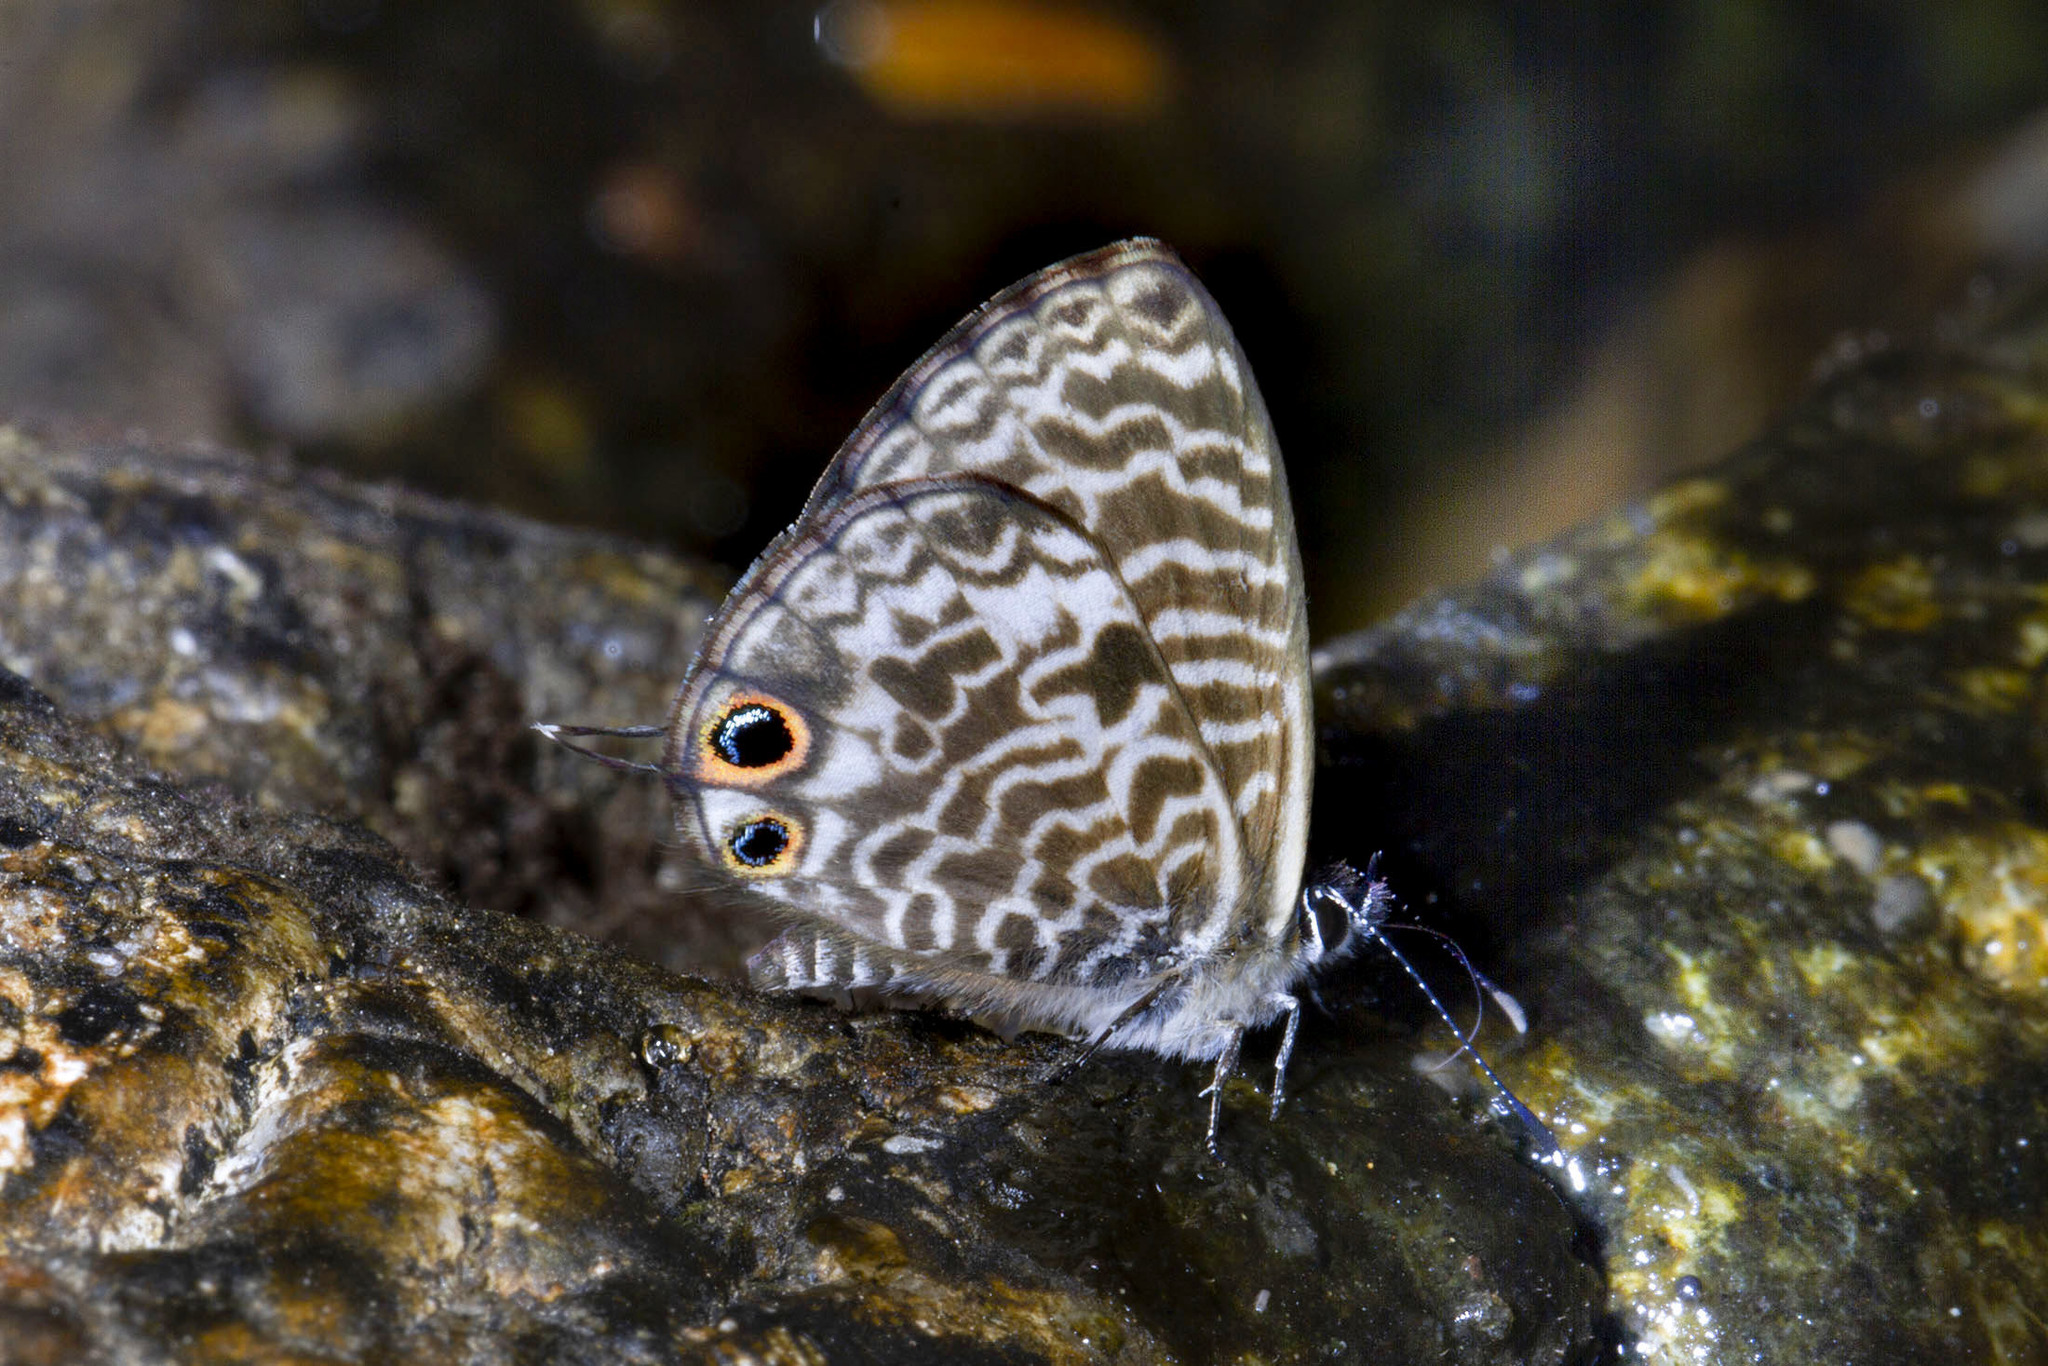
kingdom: Animalia
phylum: Arthropoda
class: Insecta
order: Lepidoptera
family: Lycaenidae
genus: Leptotes
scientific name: Leptotes rabenafer
